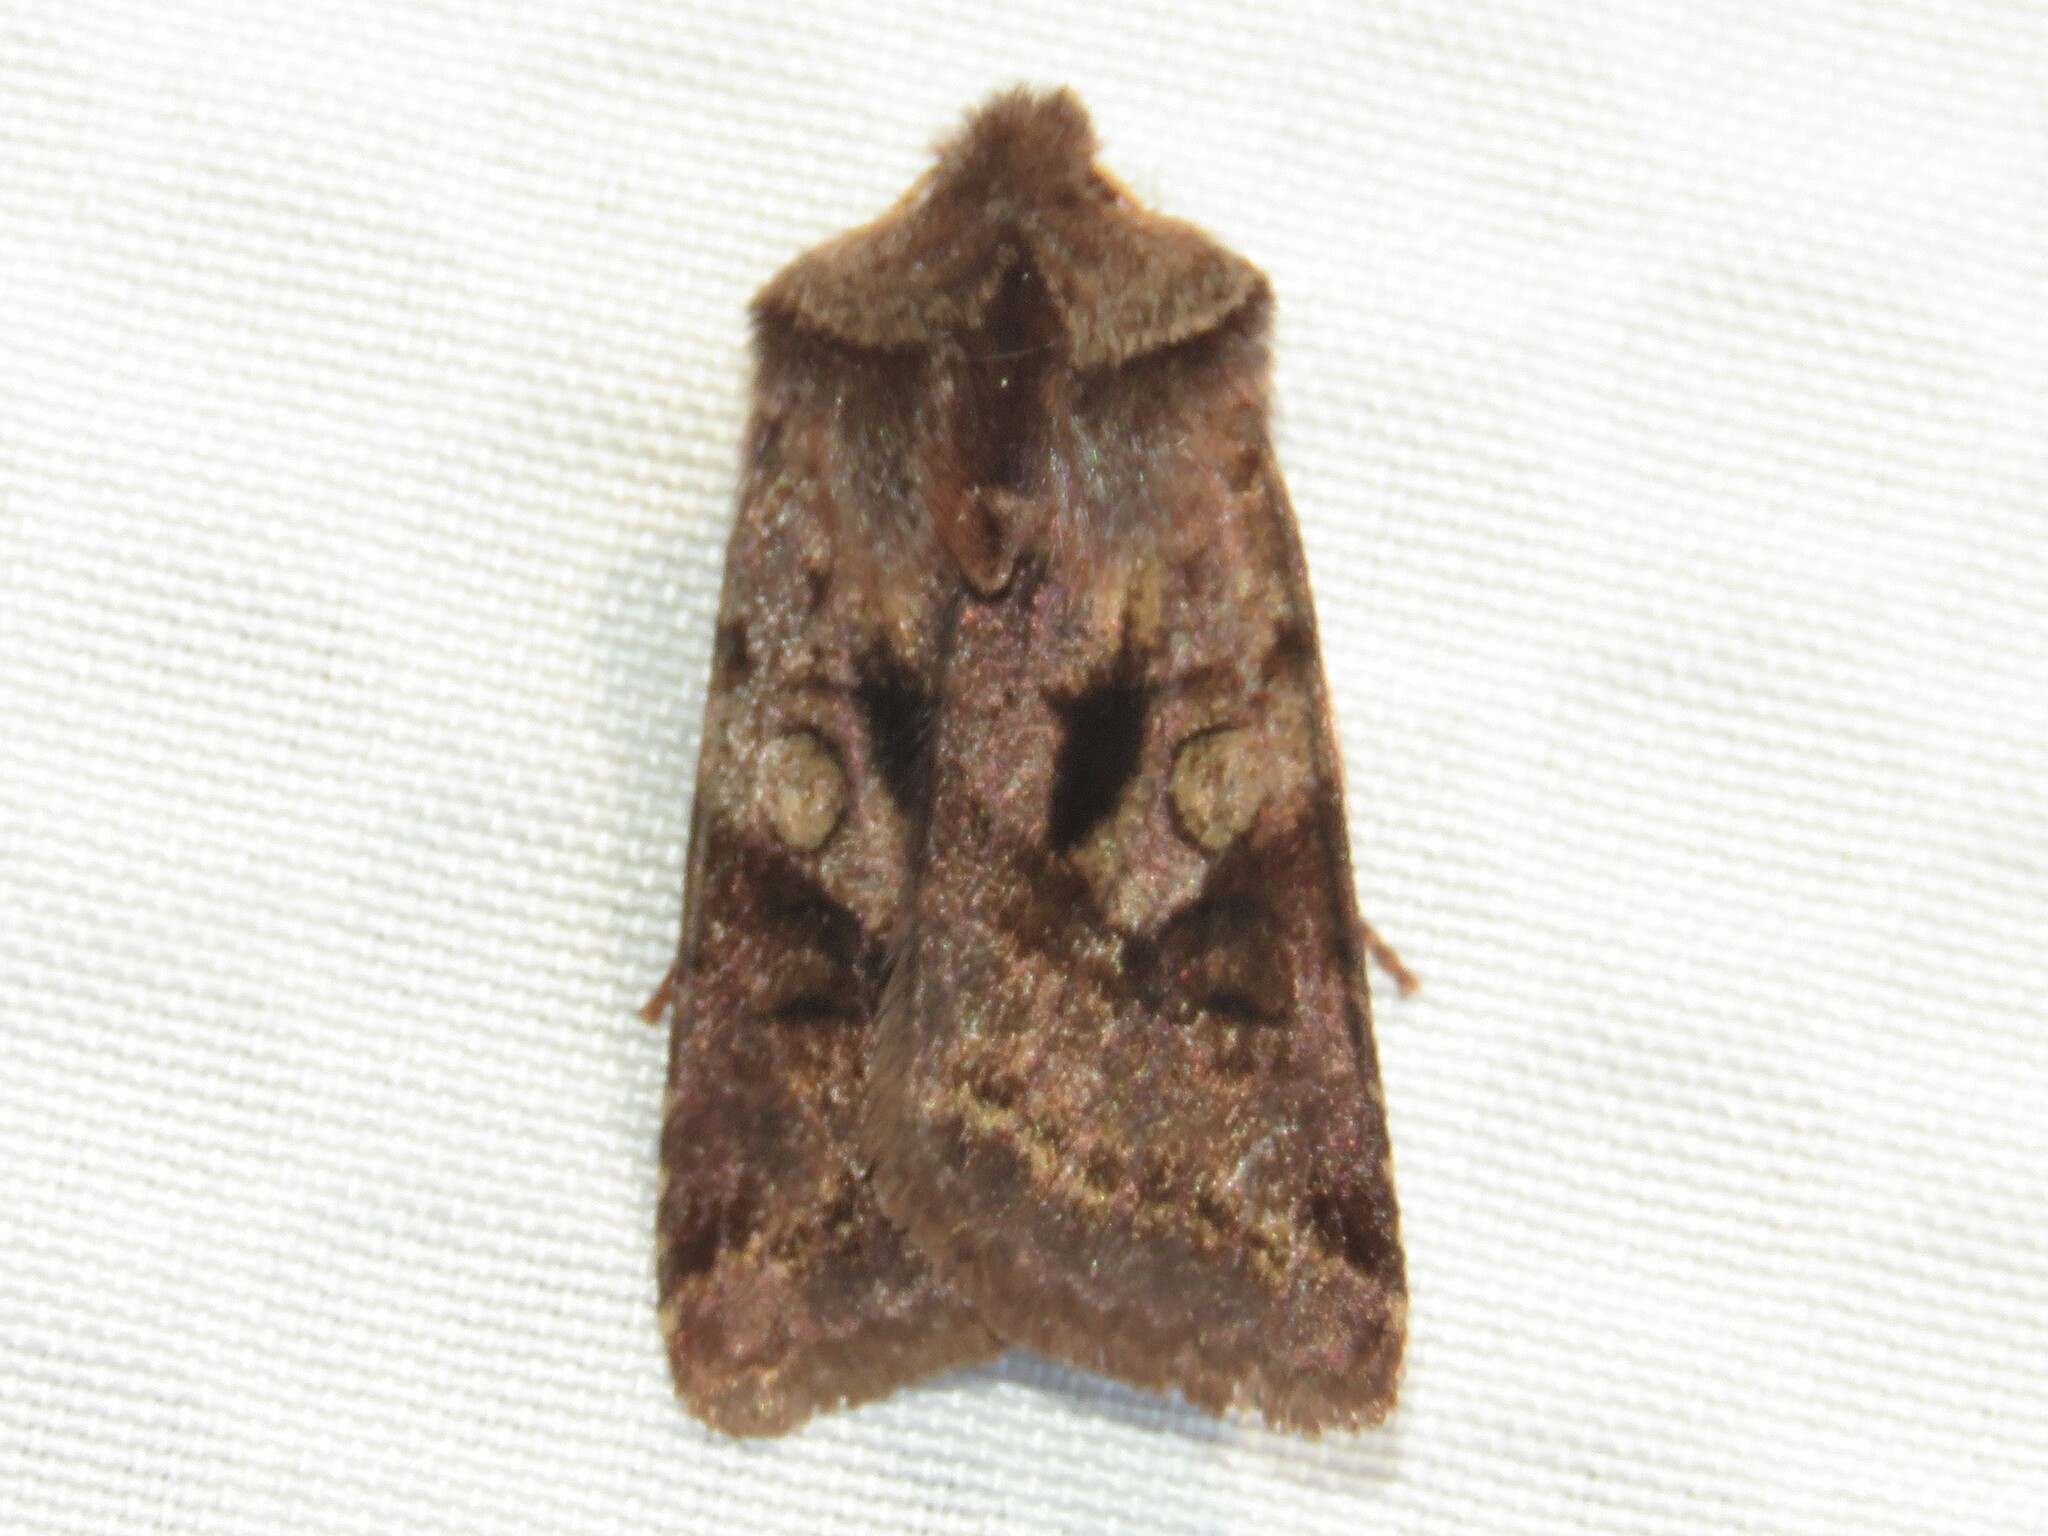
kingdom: Animalia
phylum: Arthropoda
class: Insecta
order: Lepidoptera
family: Noctuidae
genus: Cerastis
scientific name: Cerastis salicarum
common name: Willow dart
